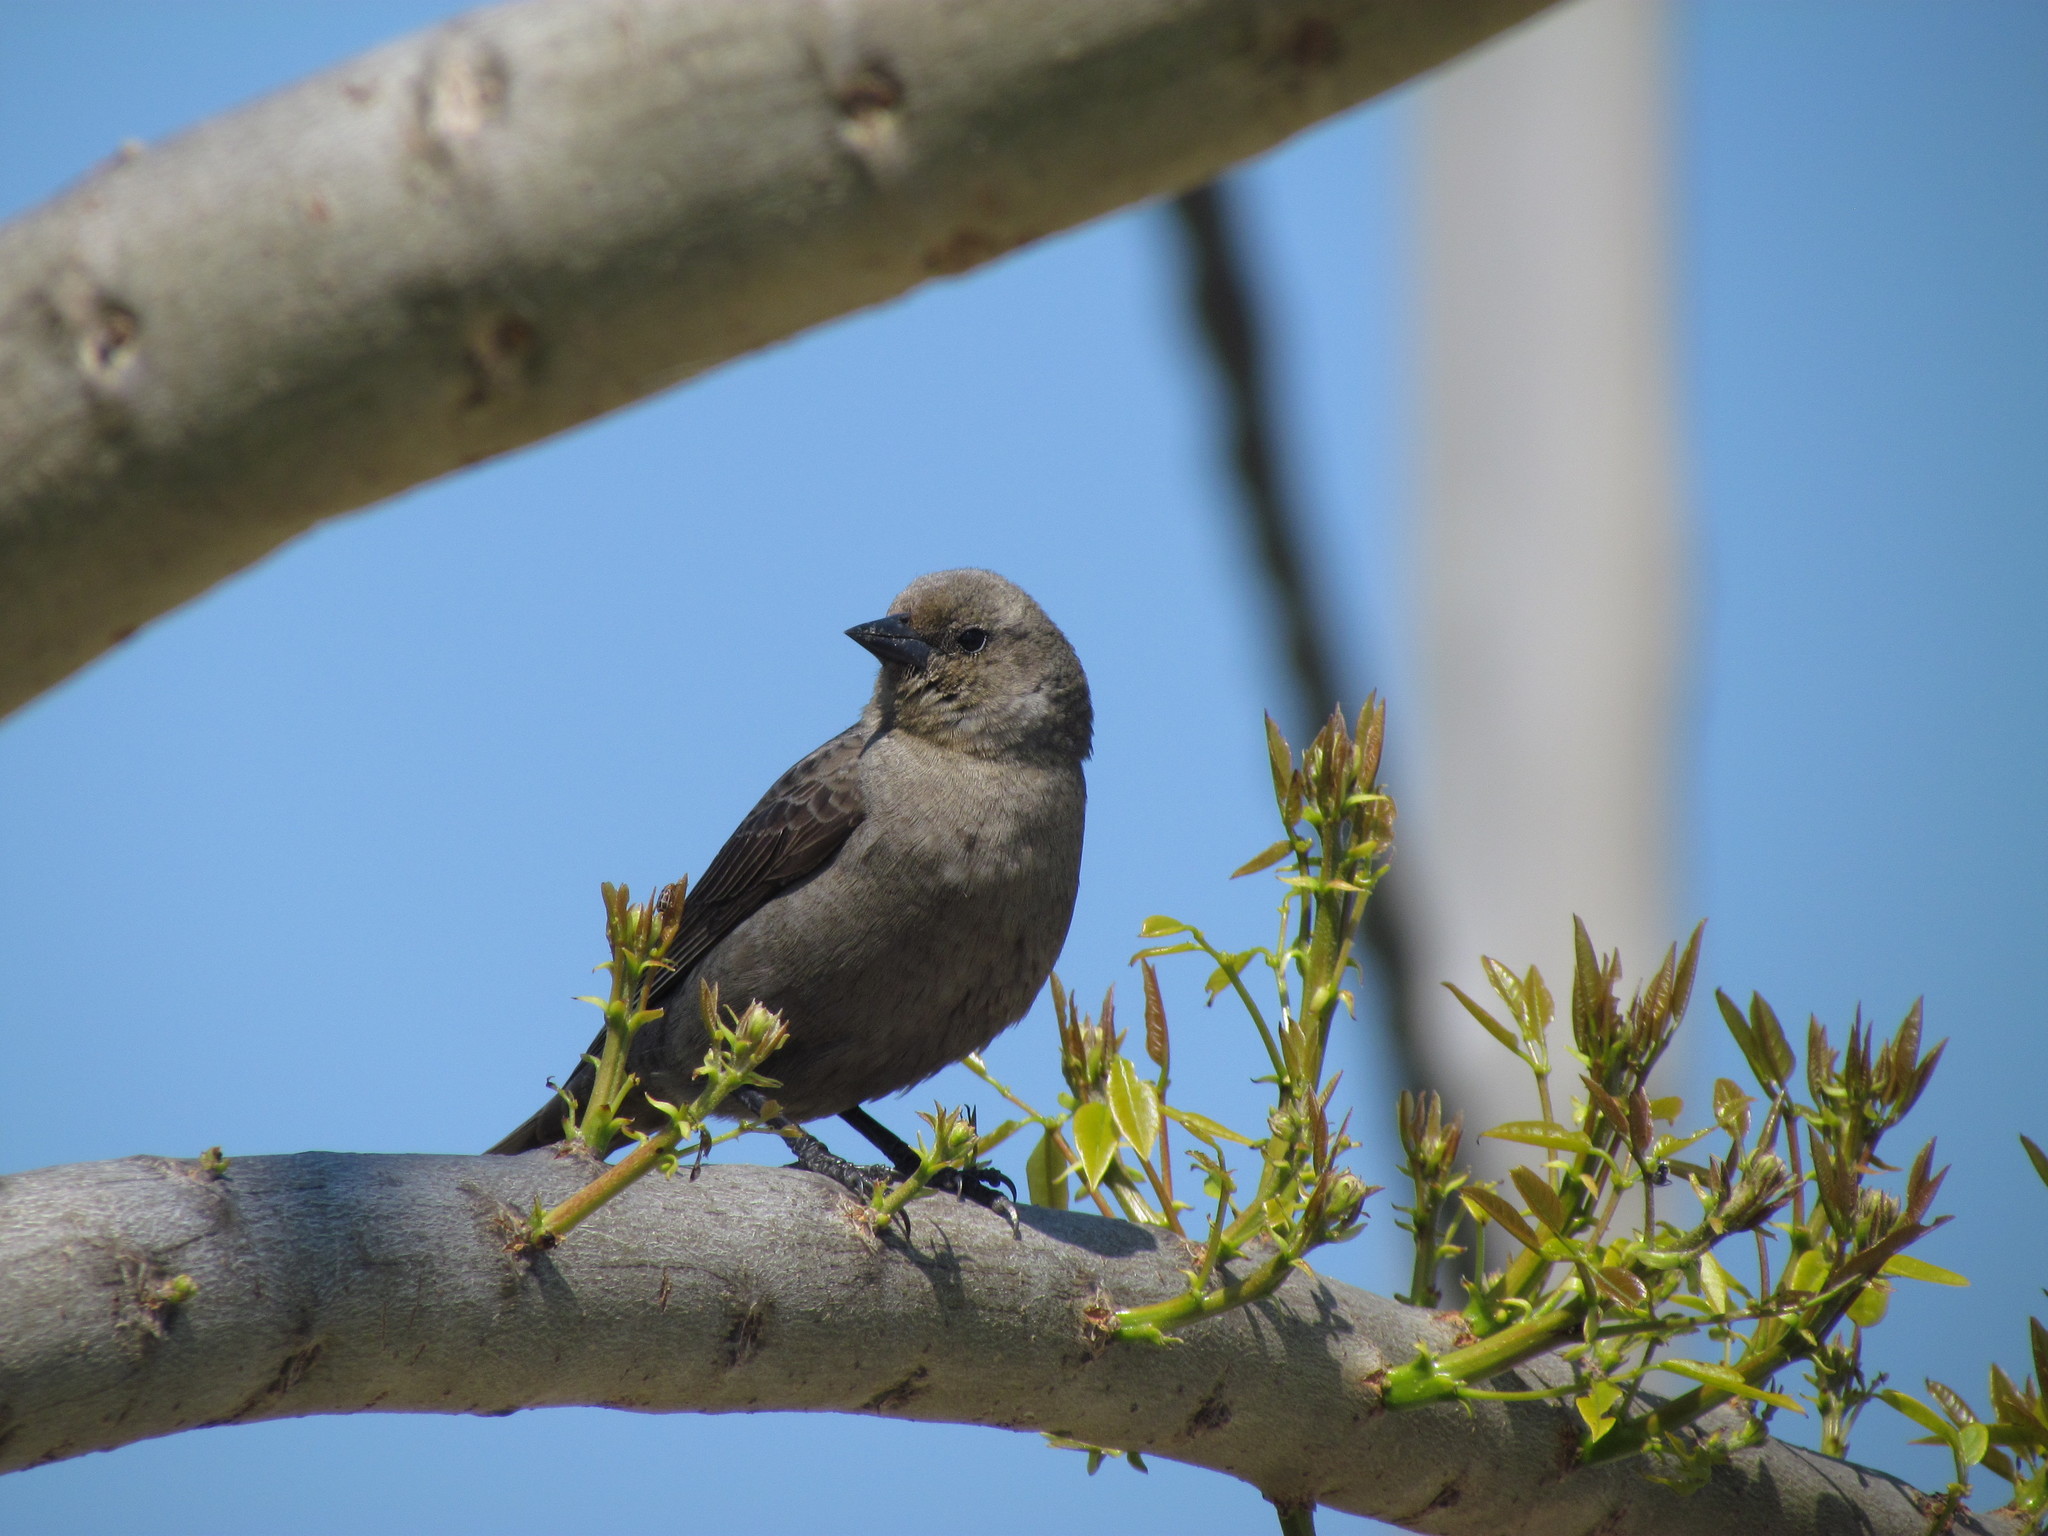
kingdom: Animalia
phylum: Chordata
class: Aves
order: Passeriformes
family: Icteridae
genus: Molothrus
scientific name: Molothrus bonariensis
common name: Shiny cowbird
